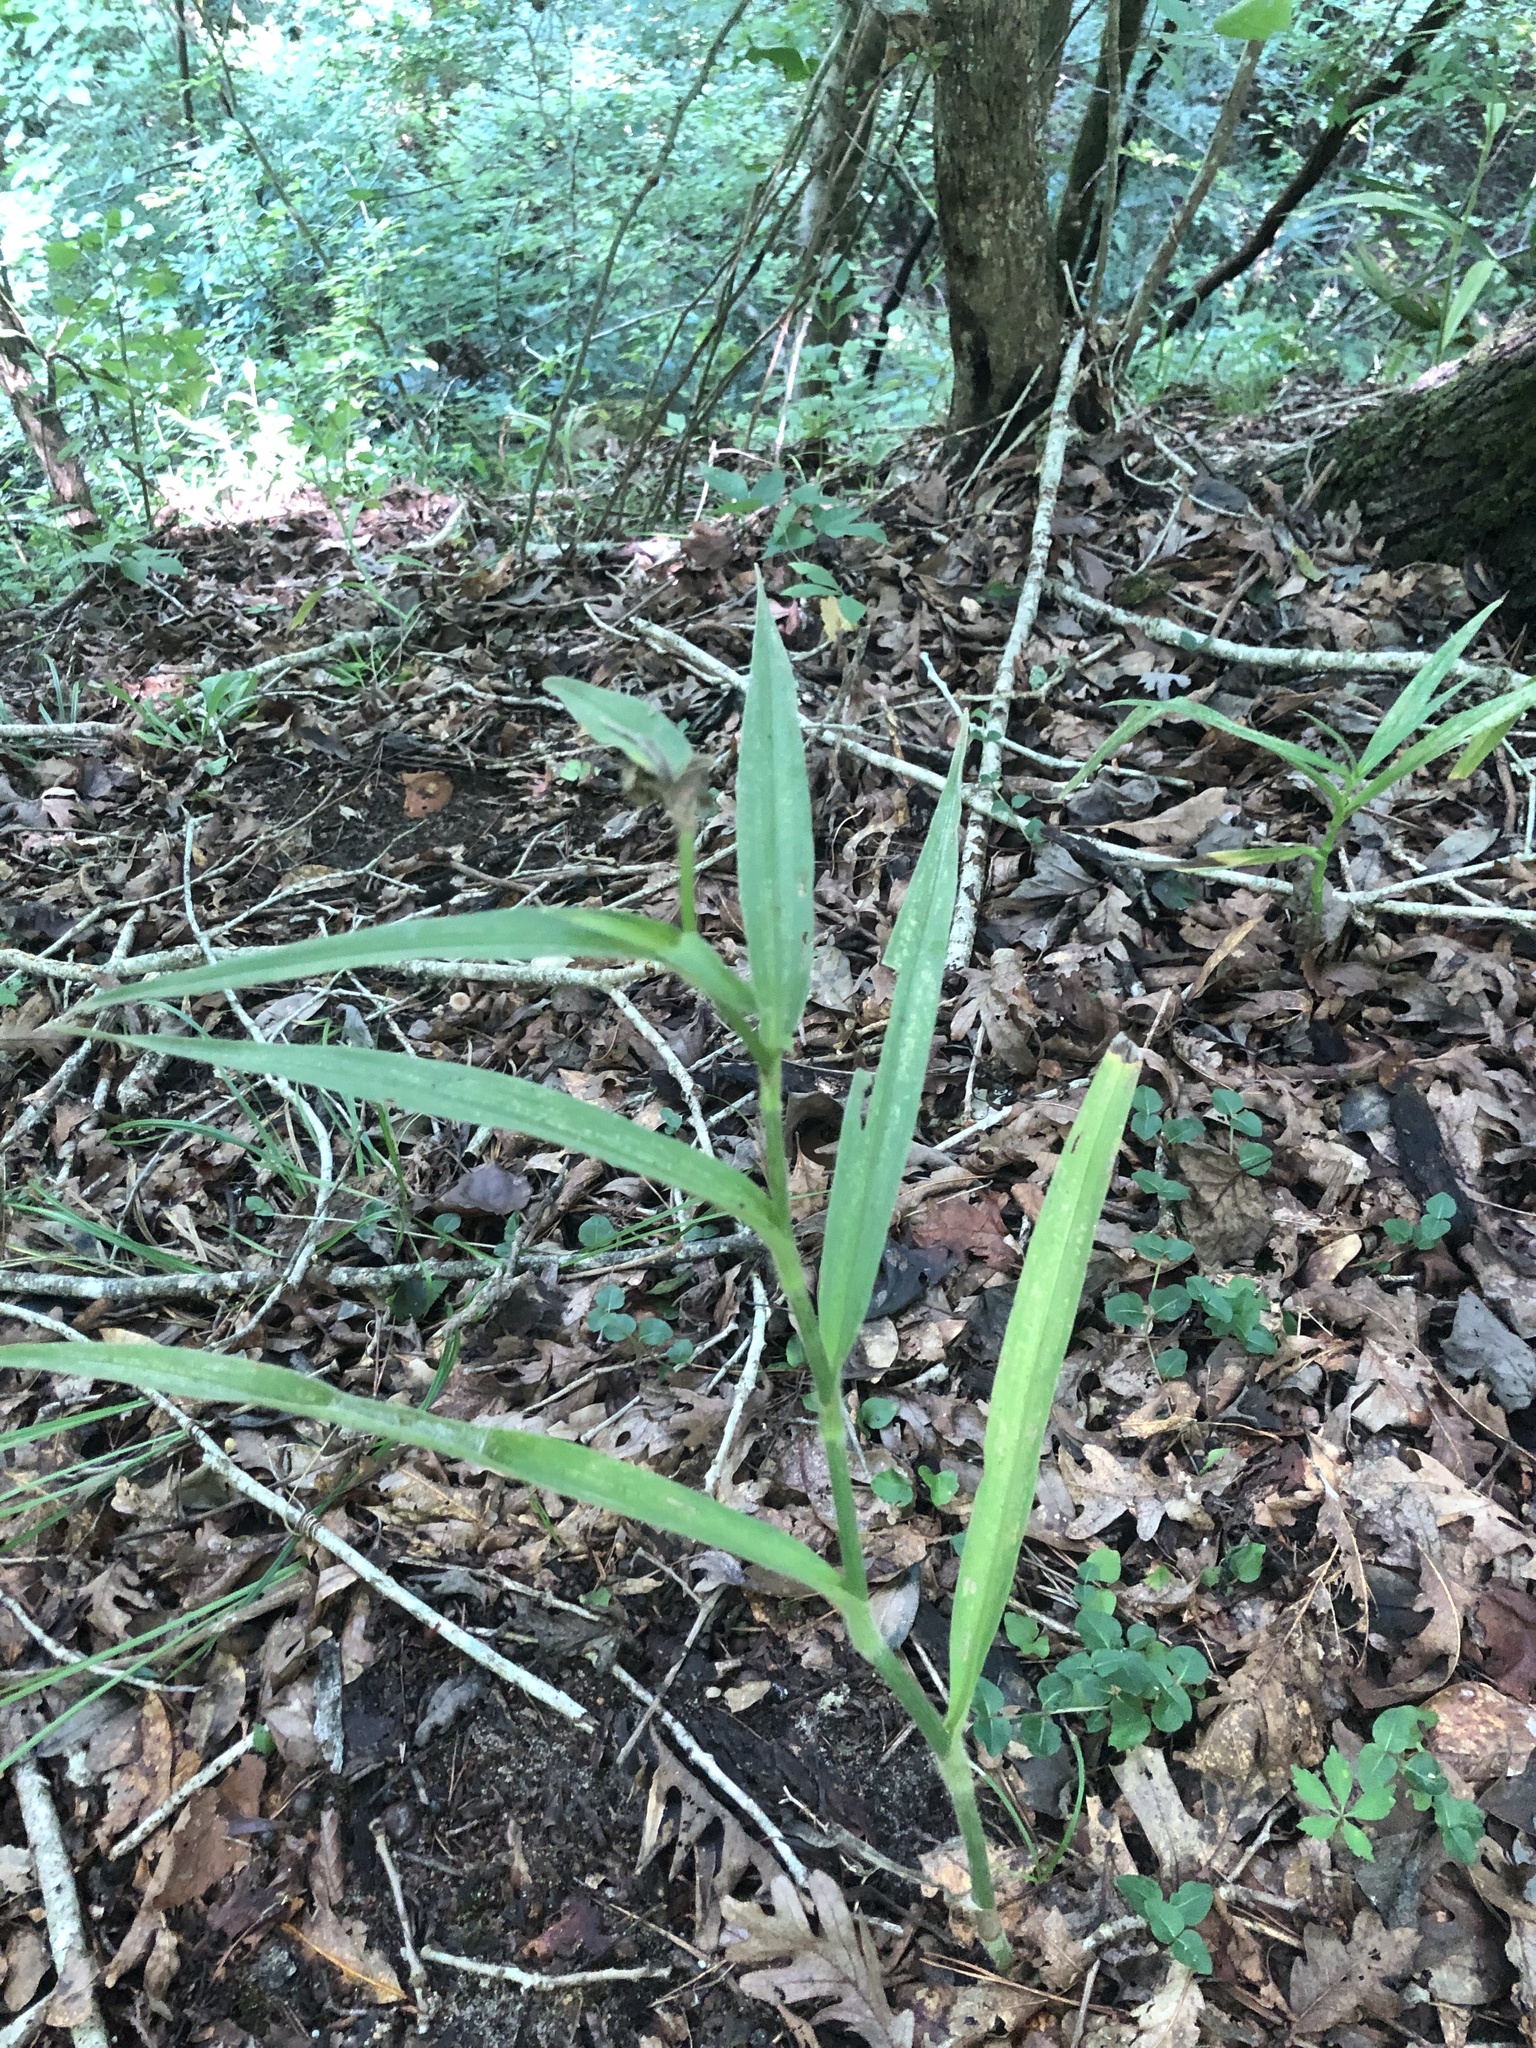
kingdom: Plantae
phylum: Tracheophyta
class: Liliopsida
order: Commelinales
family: Commelinaceae
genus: Tradescantia
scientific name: Tradescantia subaspera
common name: Wide-leaf spiderwort
